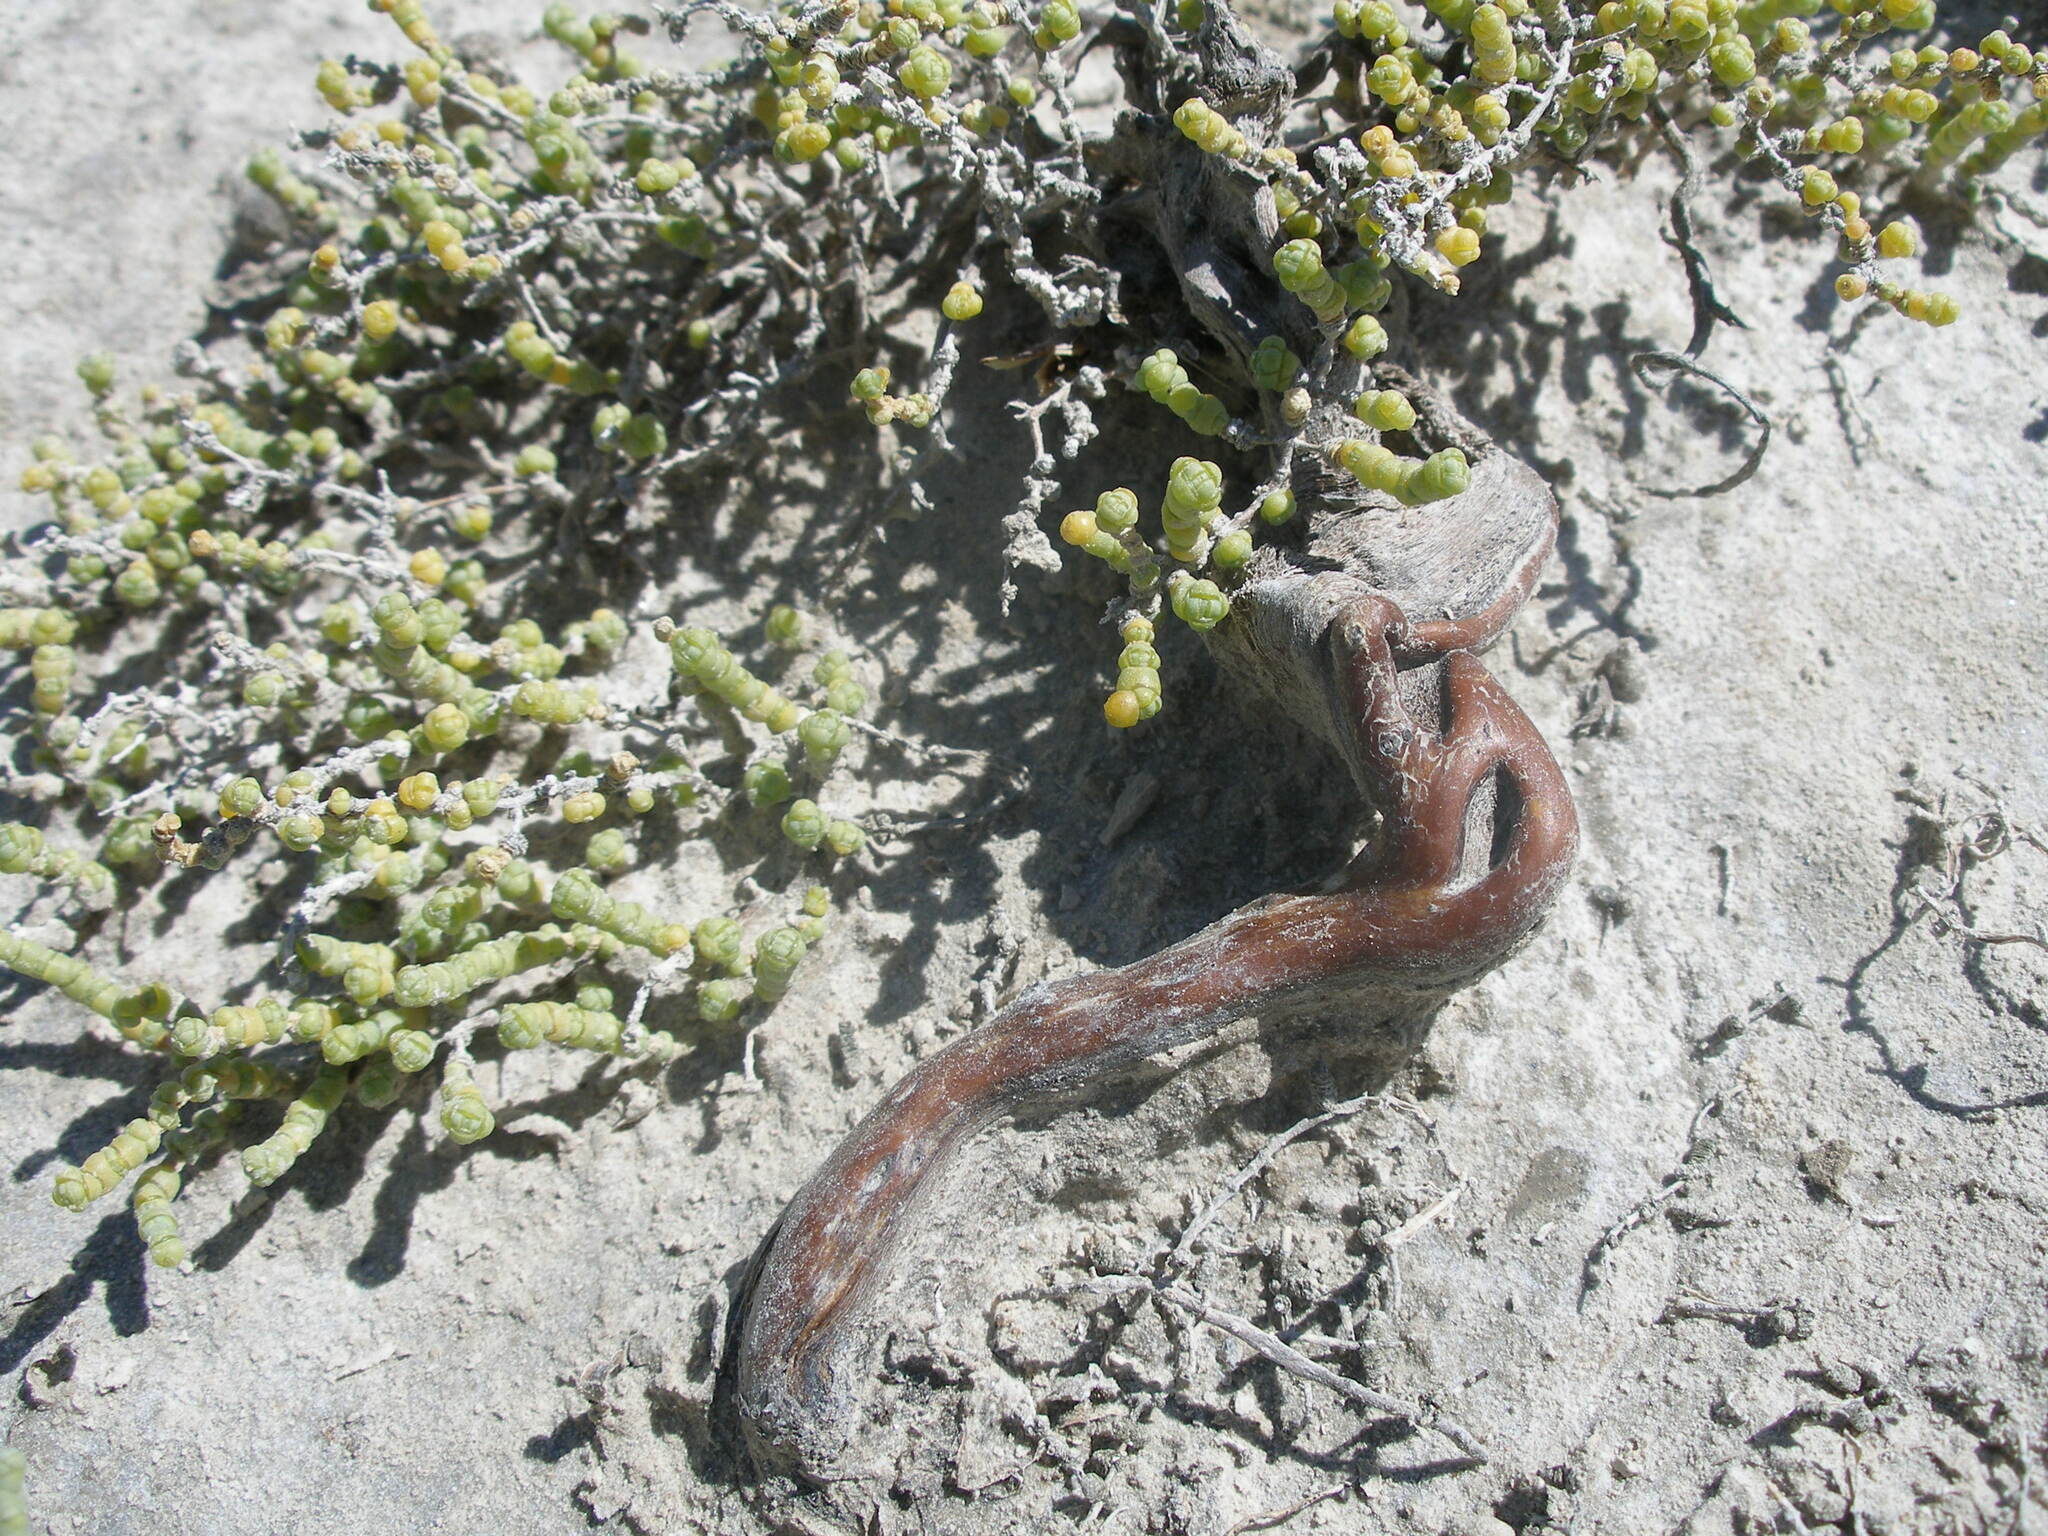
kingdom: Plantae
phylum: Tracheophyta
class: Magnoliopsida
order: Caryophyllales
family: Amaranthaceae
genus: Halocnemum
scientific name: Halocnemum strobilaceum
